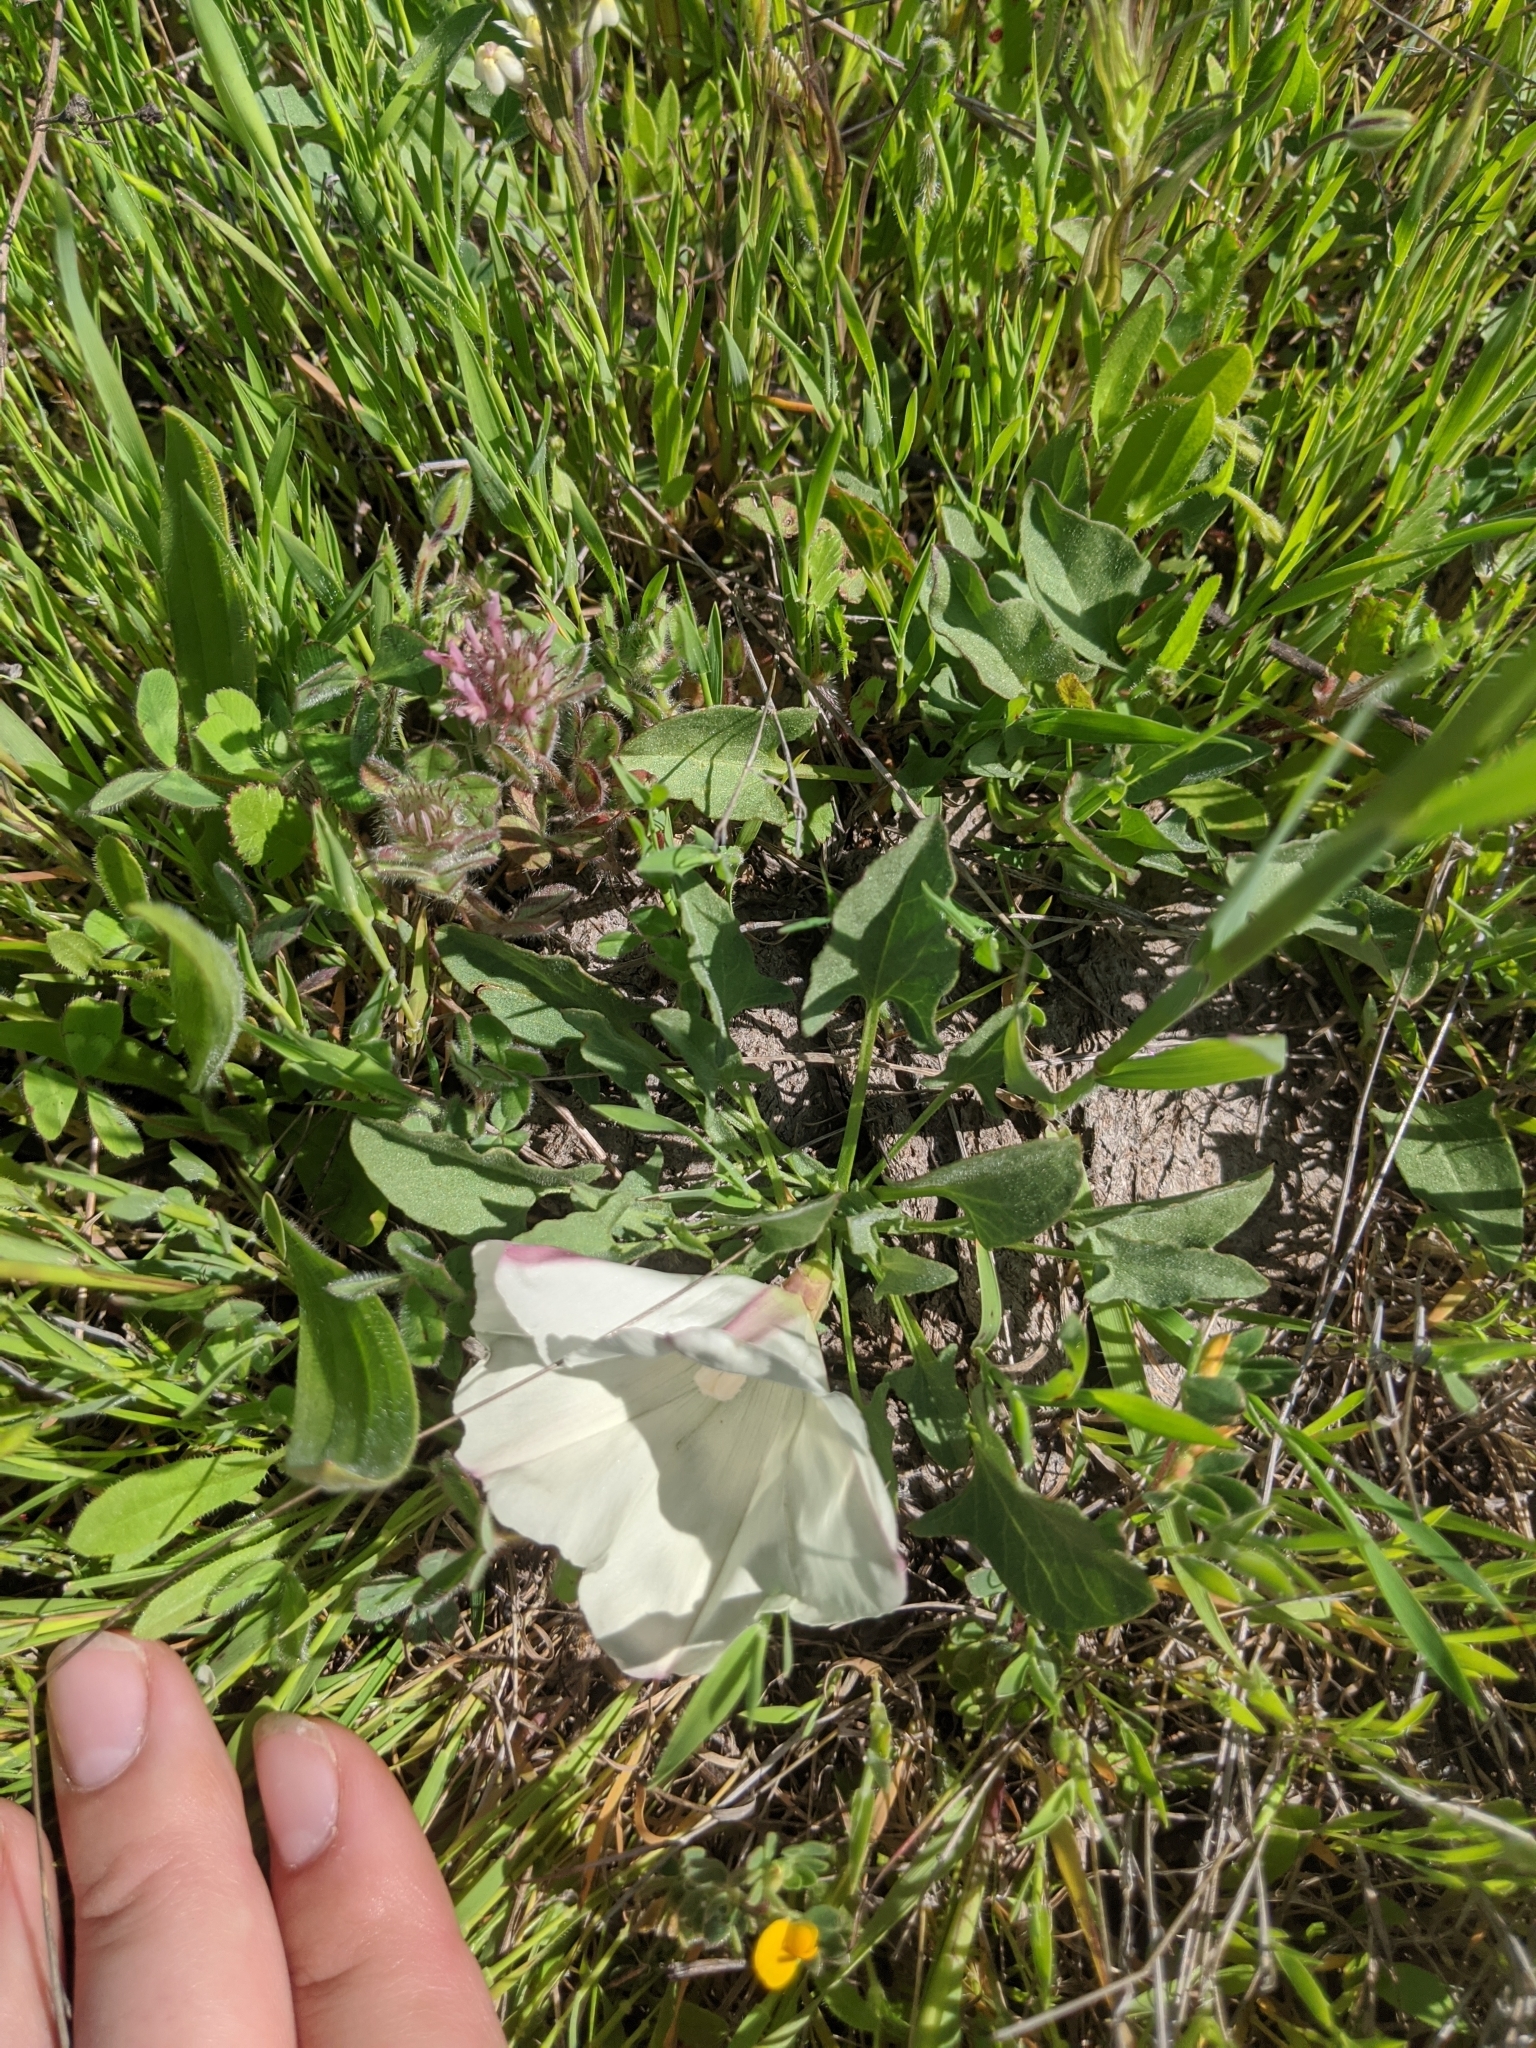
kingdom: Plantae
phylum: Tracheophyta
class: Magnoliopsida
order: Solanales
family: Convolvulaceae
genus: Calystegia
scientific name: Calystegia subacaulis
